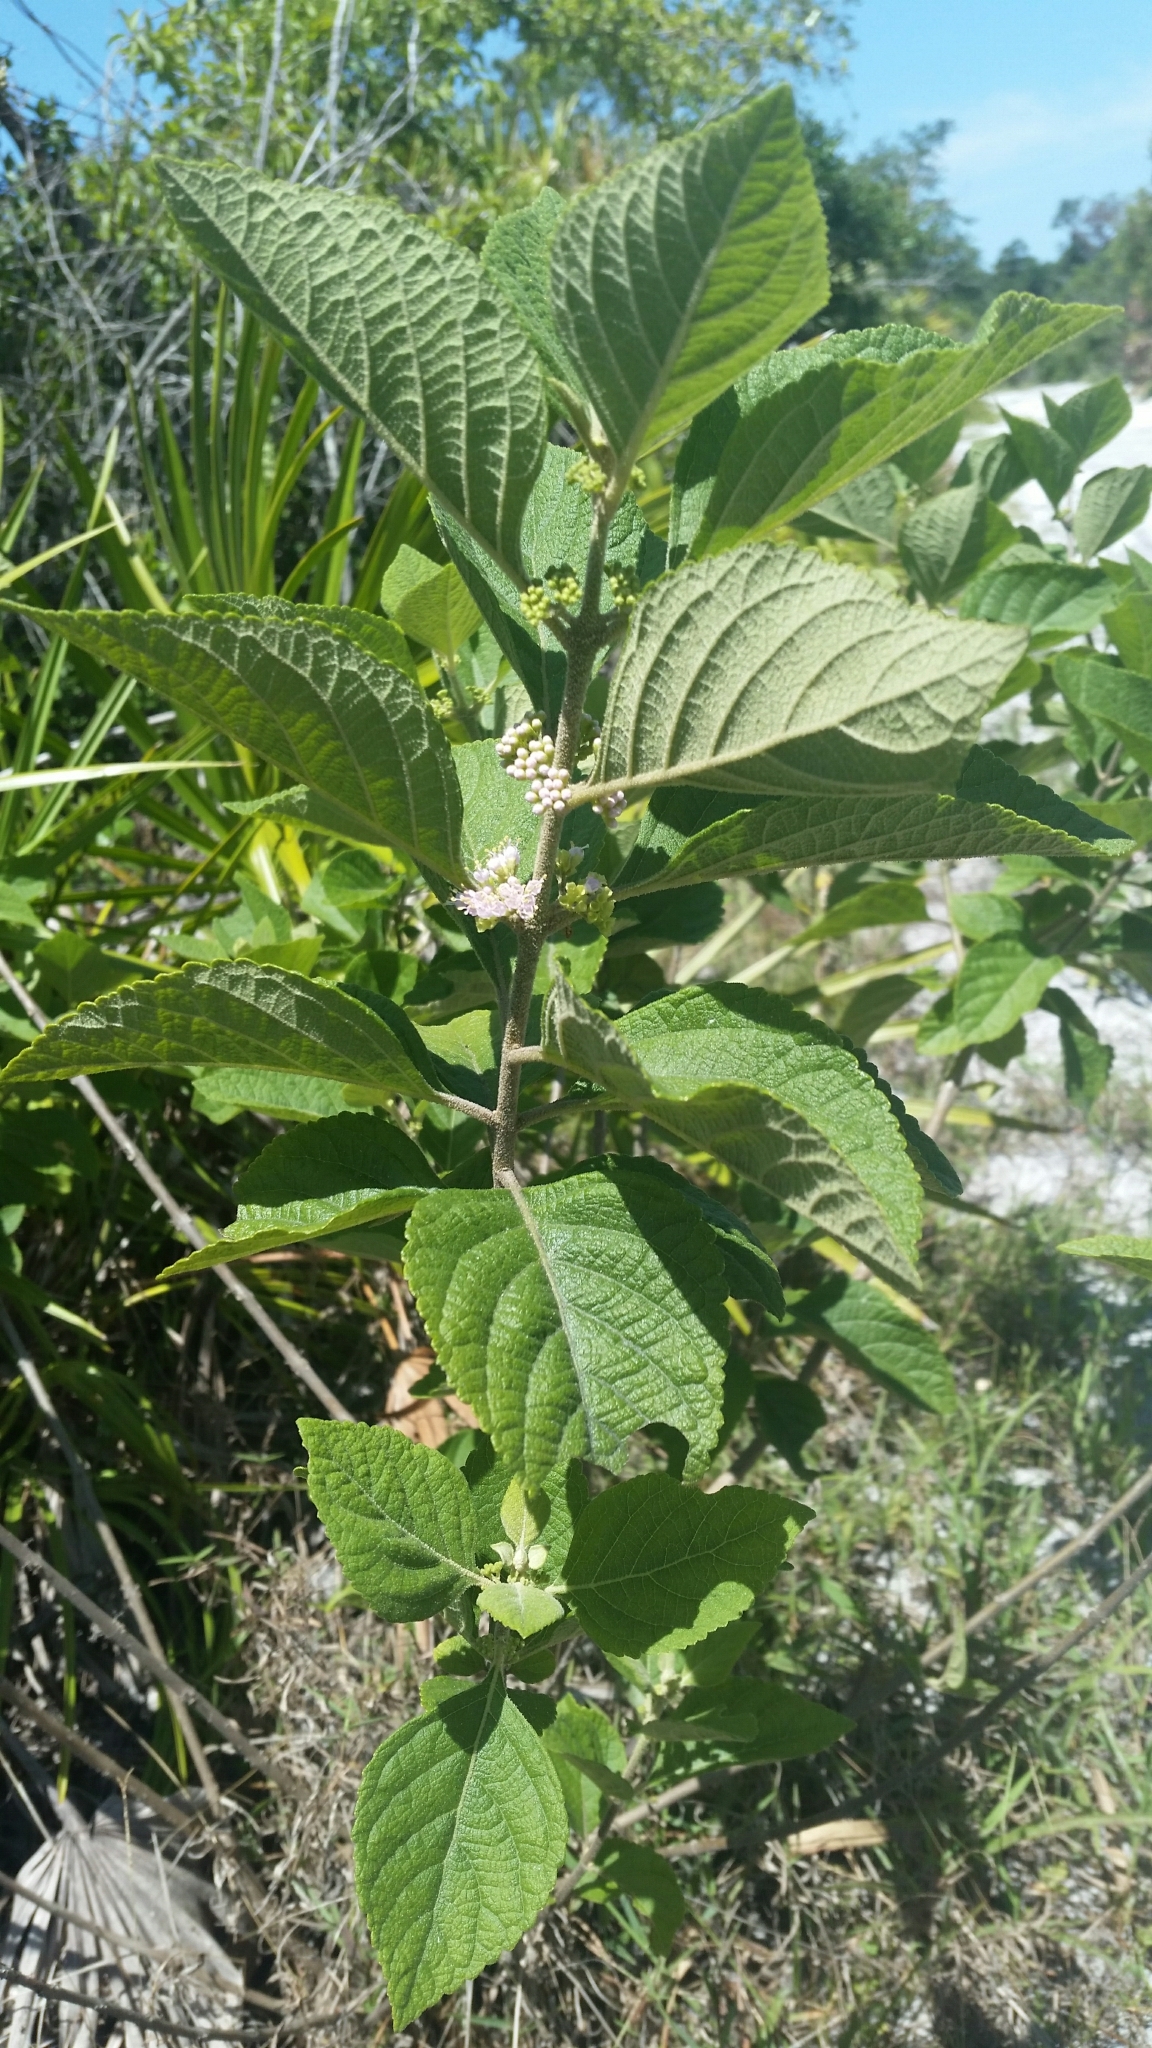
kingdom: Plantae
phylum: Tracheophyta
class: Magnoliopsida
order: Lamiales
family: Lamiaceae
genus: Callicarpa
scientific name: Callicarpa americana
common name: American beautyberry
